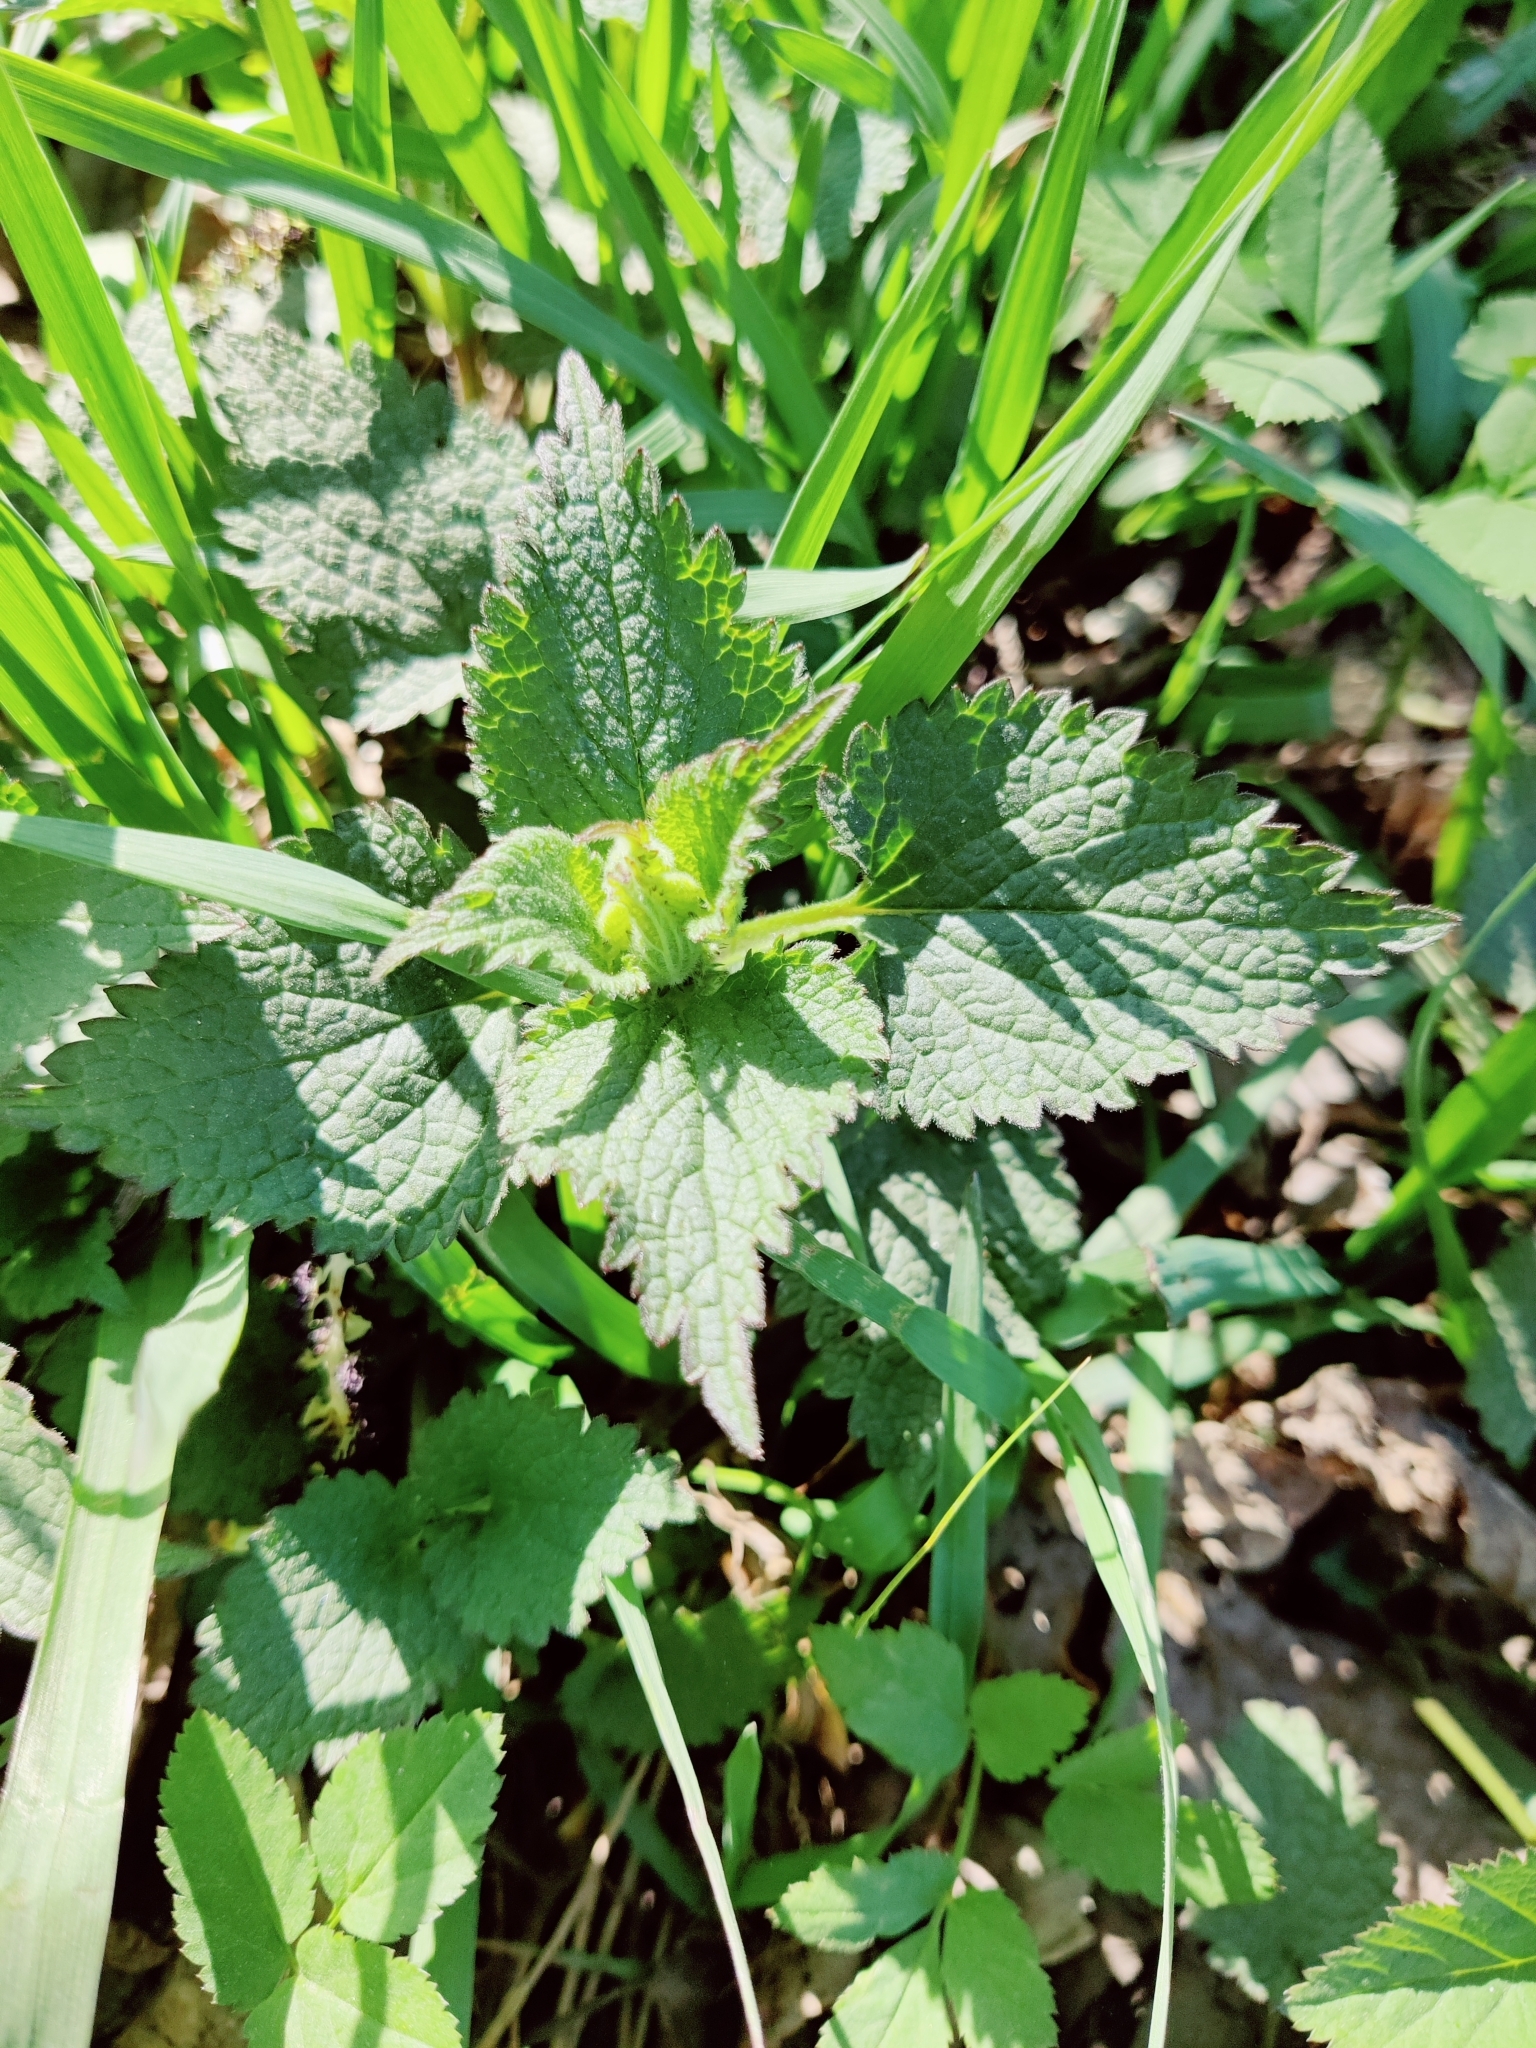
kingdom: Plantae
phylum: Tracheophyta
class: Magnoliopsida
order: Lamiales
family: Lamiaceae
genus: Lamium
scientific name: Lamium album
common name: White dead-nettle
